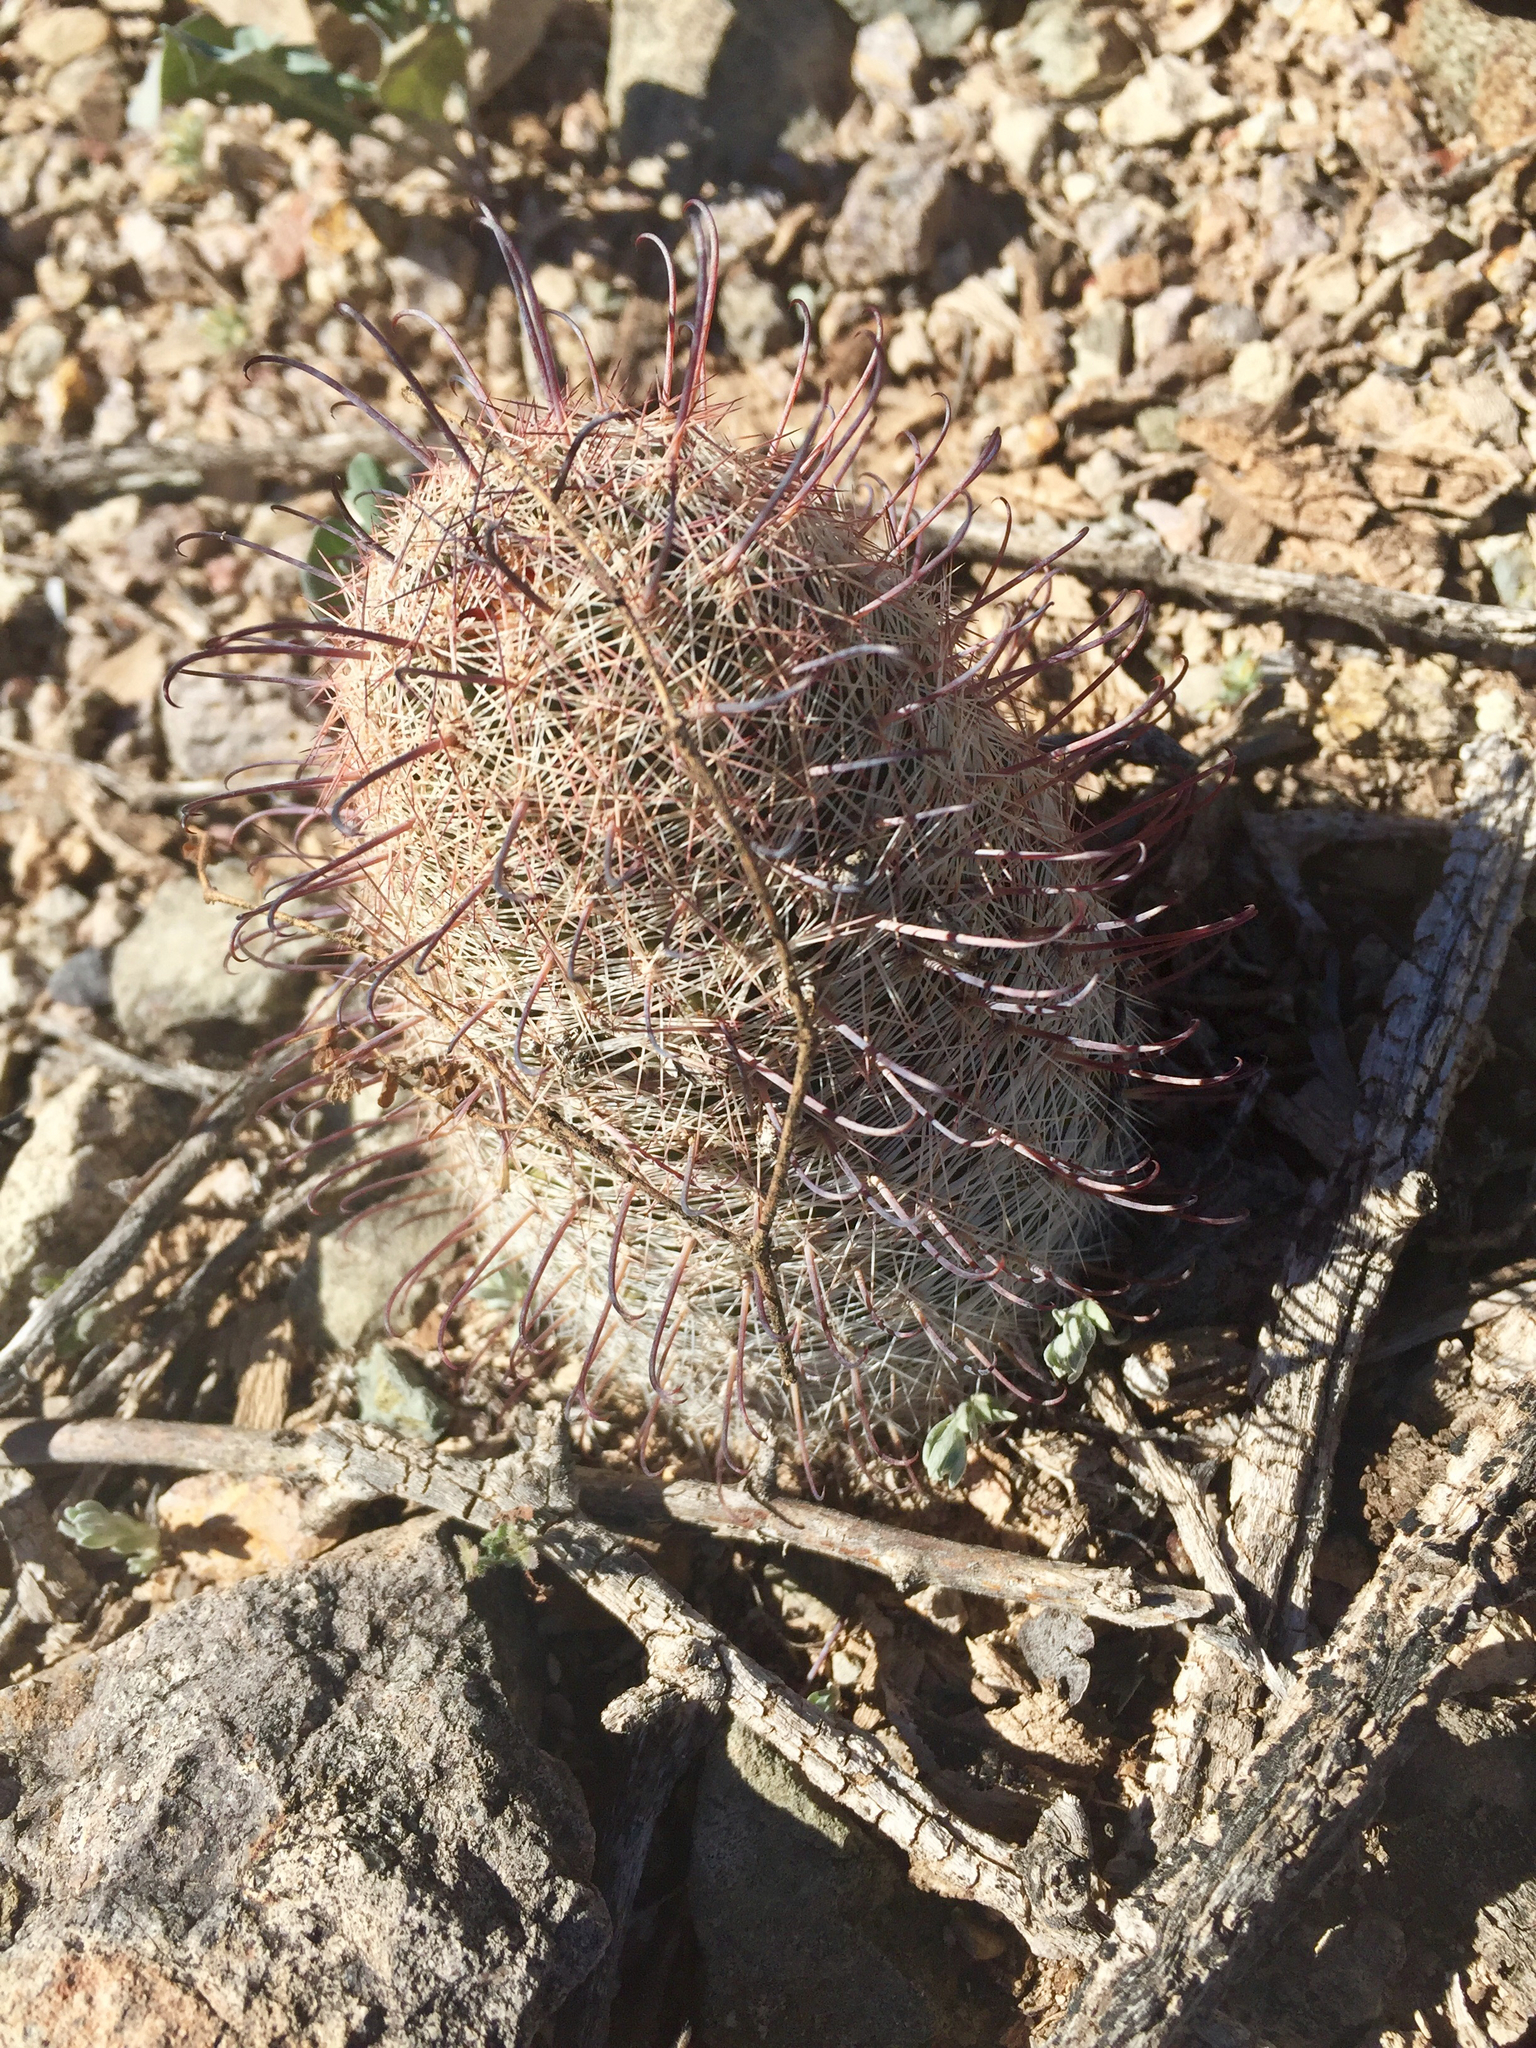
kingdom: Plantae
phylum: Tracheophyta
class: Magnoliopsida
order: Caryophyllales
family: Cactaceae
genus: Cochemiea
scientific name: Cochemiea grahamii
